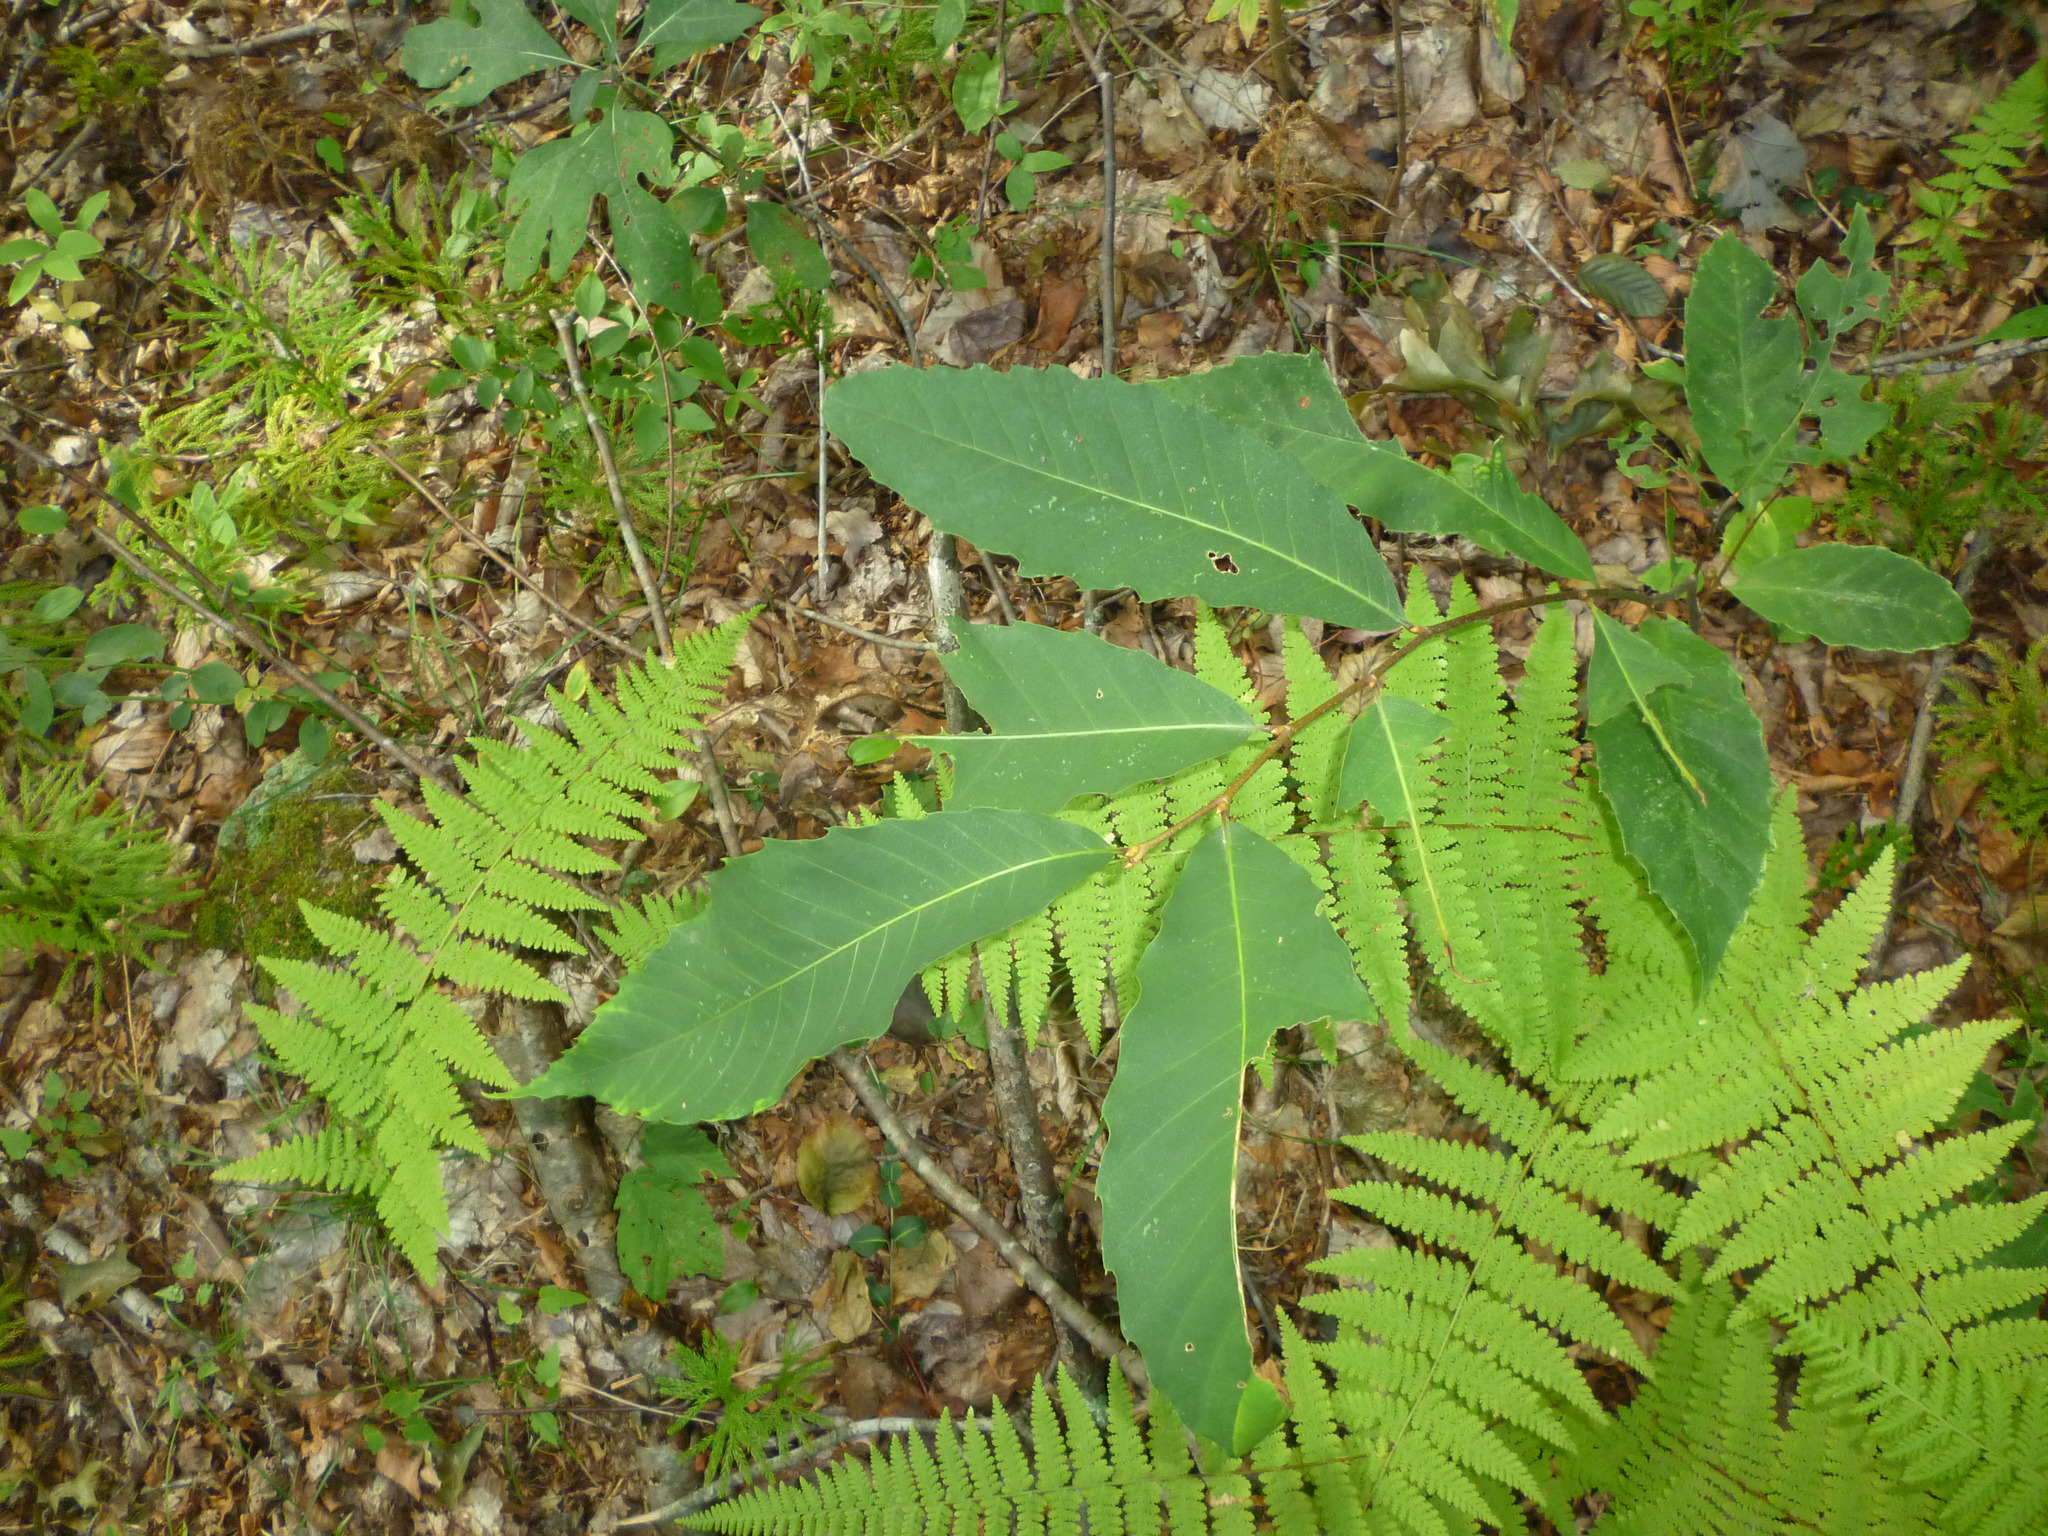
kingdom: Plantae
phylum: Tracheophyta
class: Magnoliopsida
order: Fagales
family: Fagaceae
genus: Castanea
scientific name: Castanea dentata
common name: American chestnut
